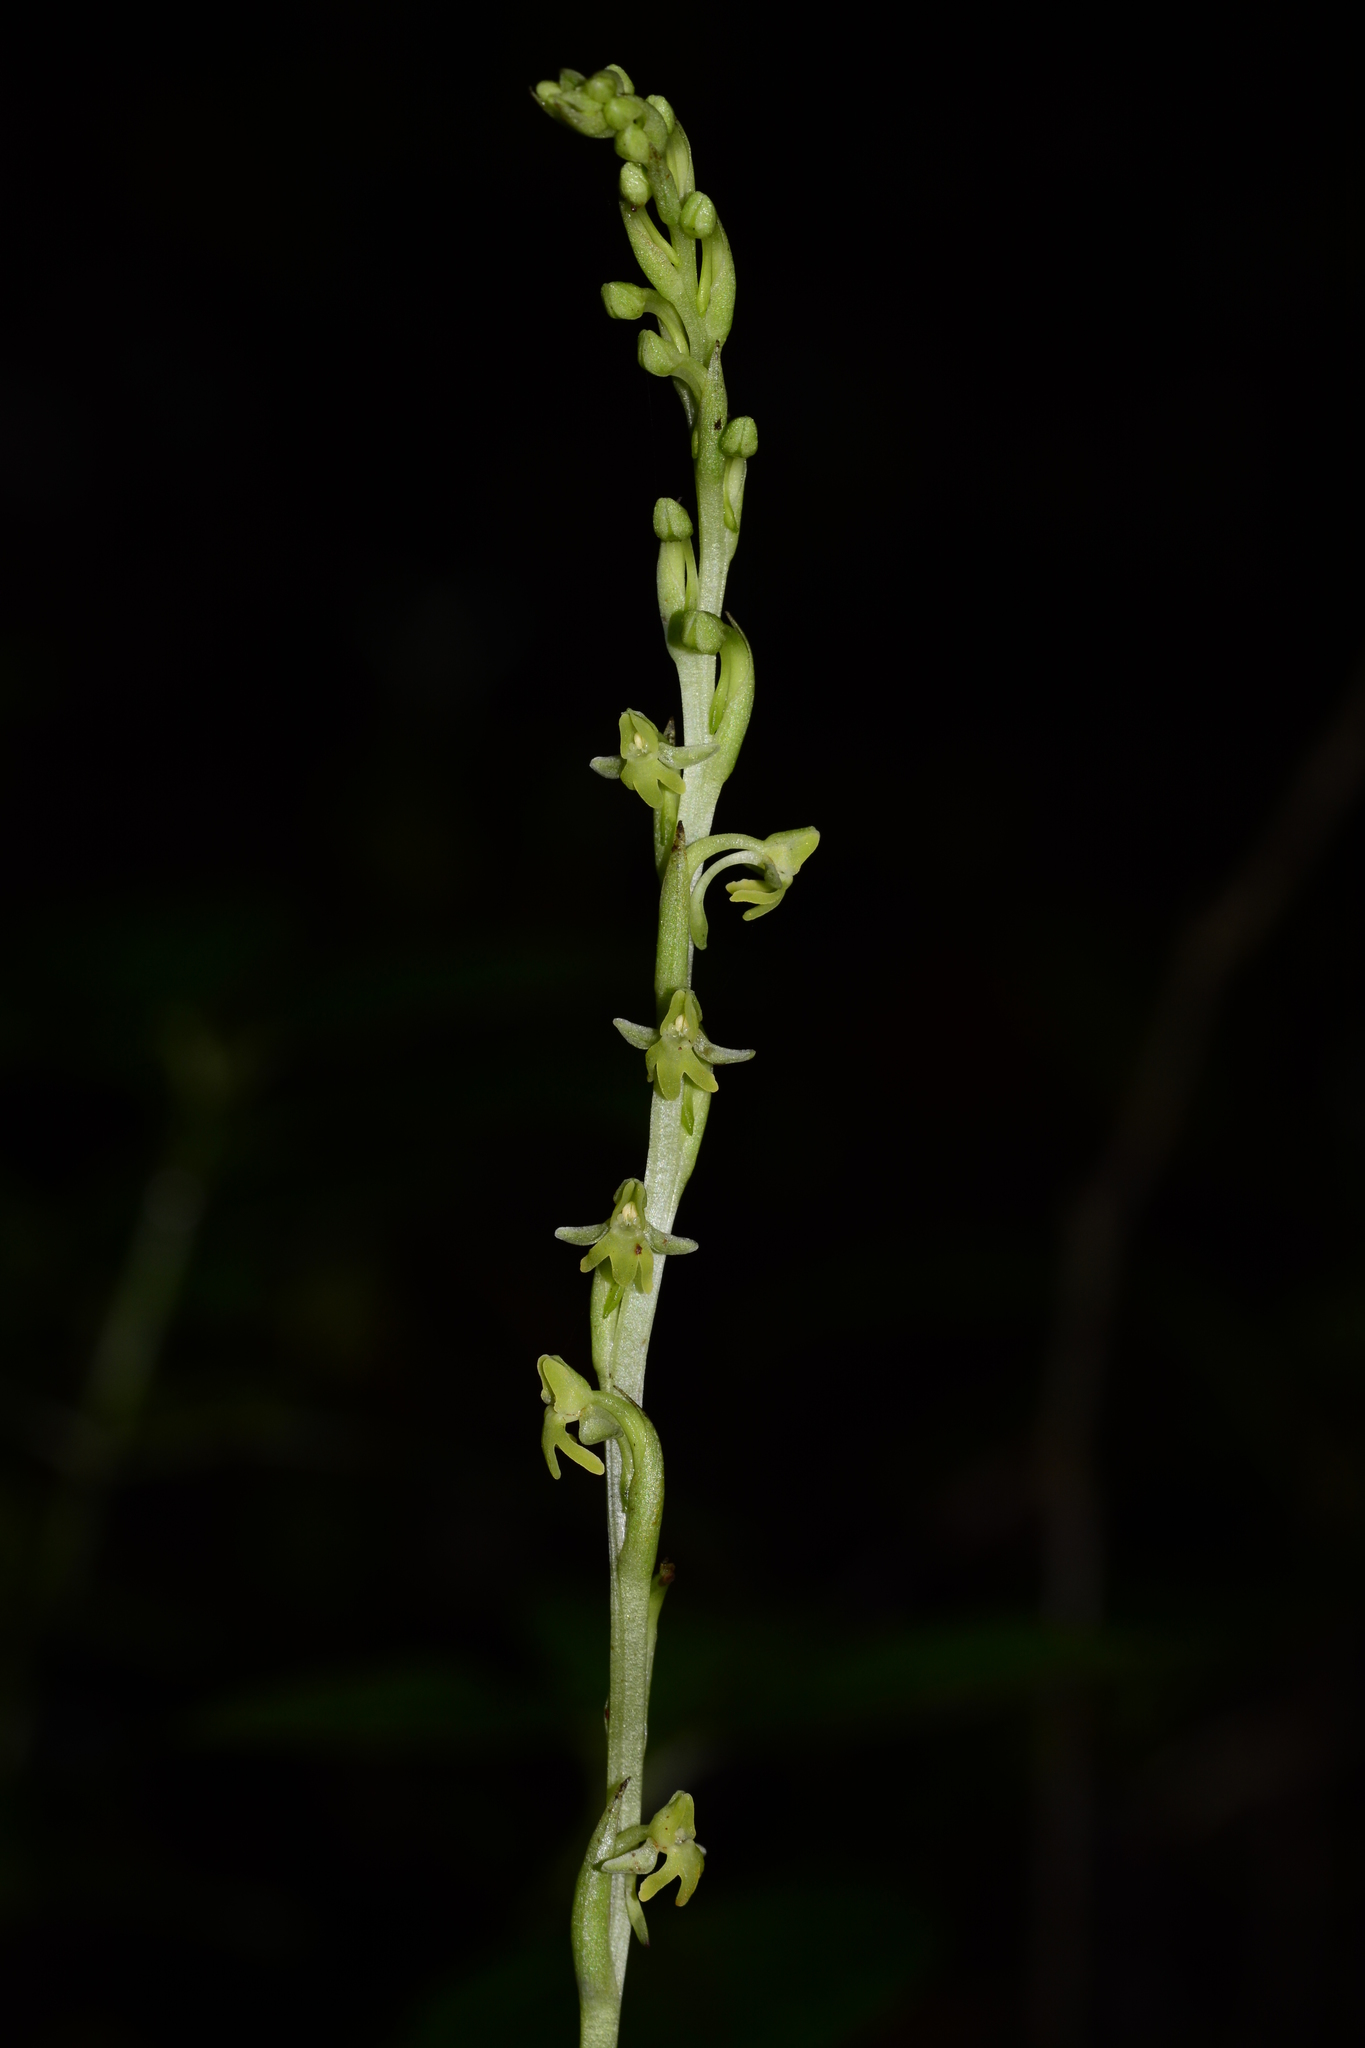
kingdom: Plantae
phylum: Tracheophyta
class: Liliopsida
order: Asparagales
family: Orchidaceae
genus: Peristylus
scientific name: Peristylus caranjensis
